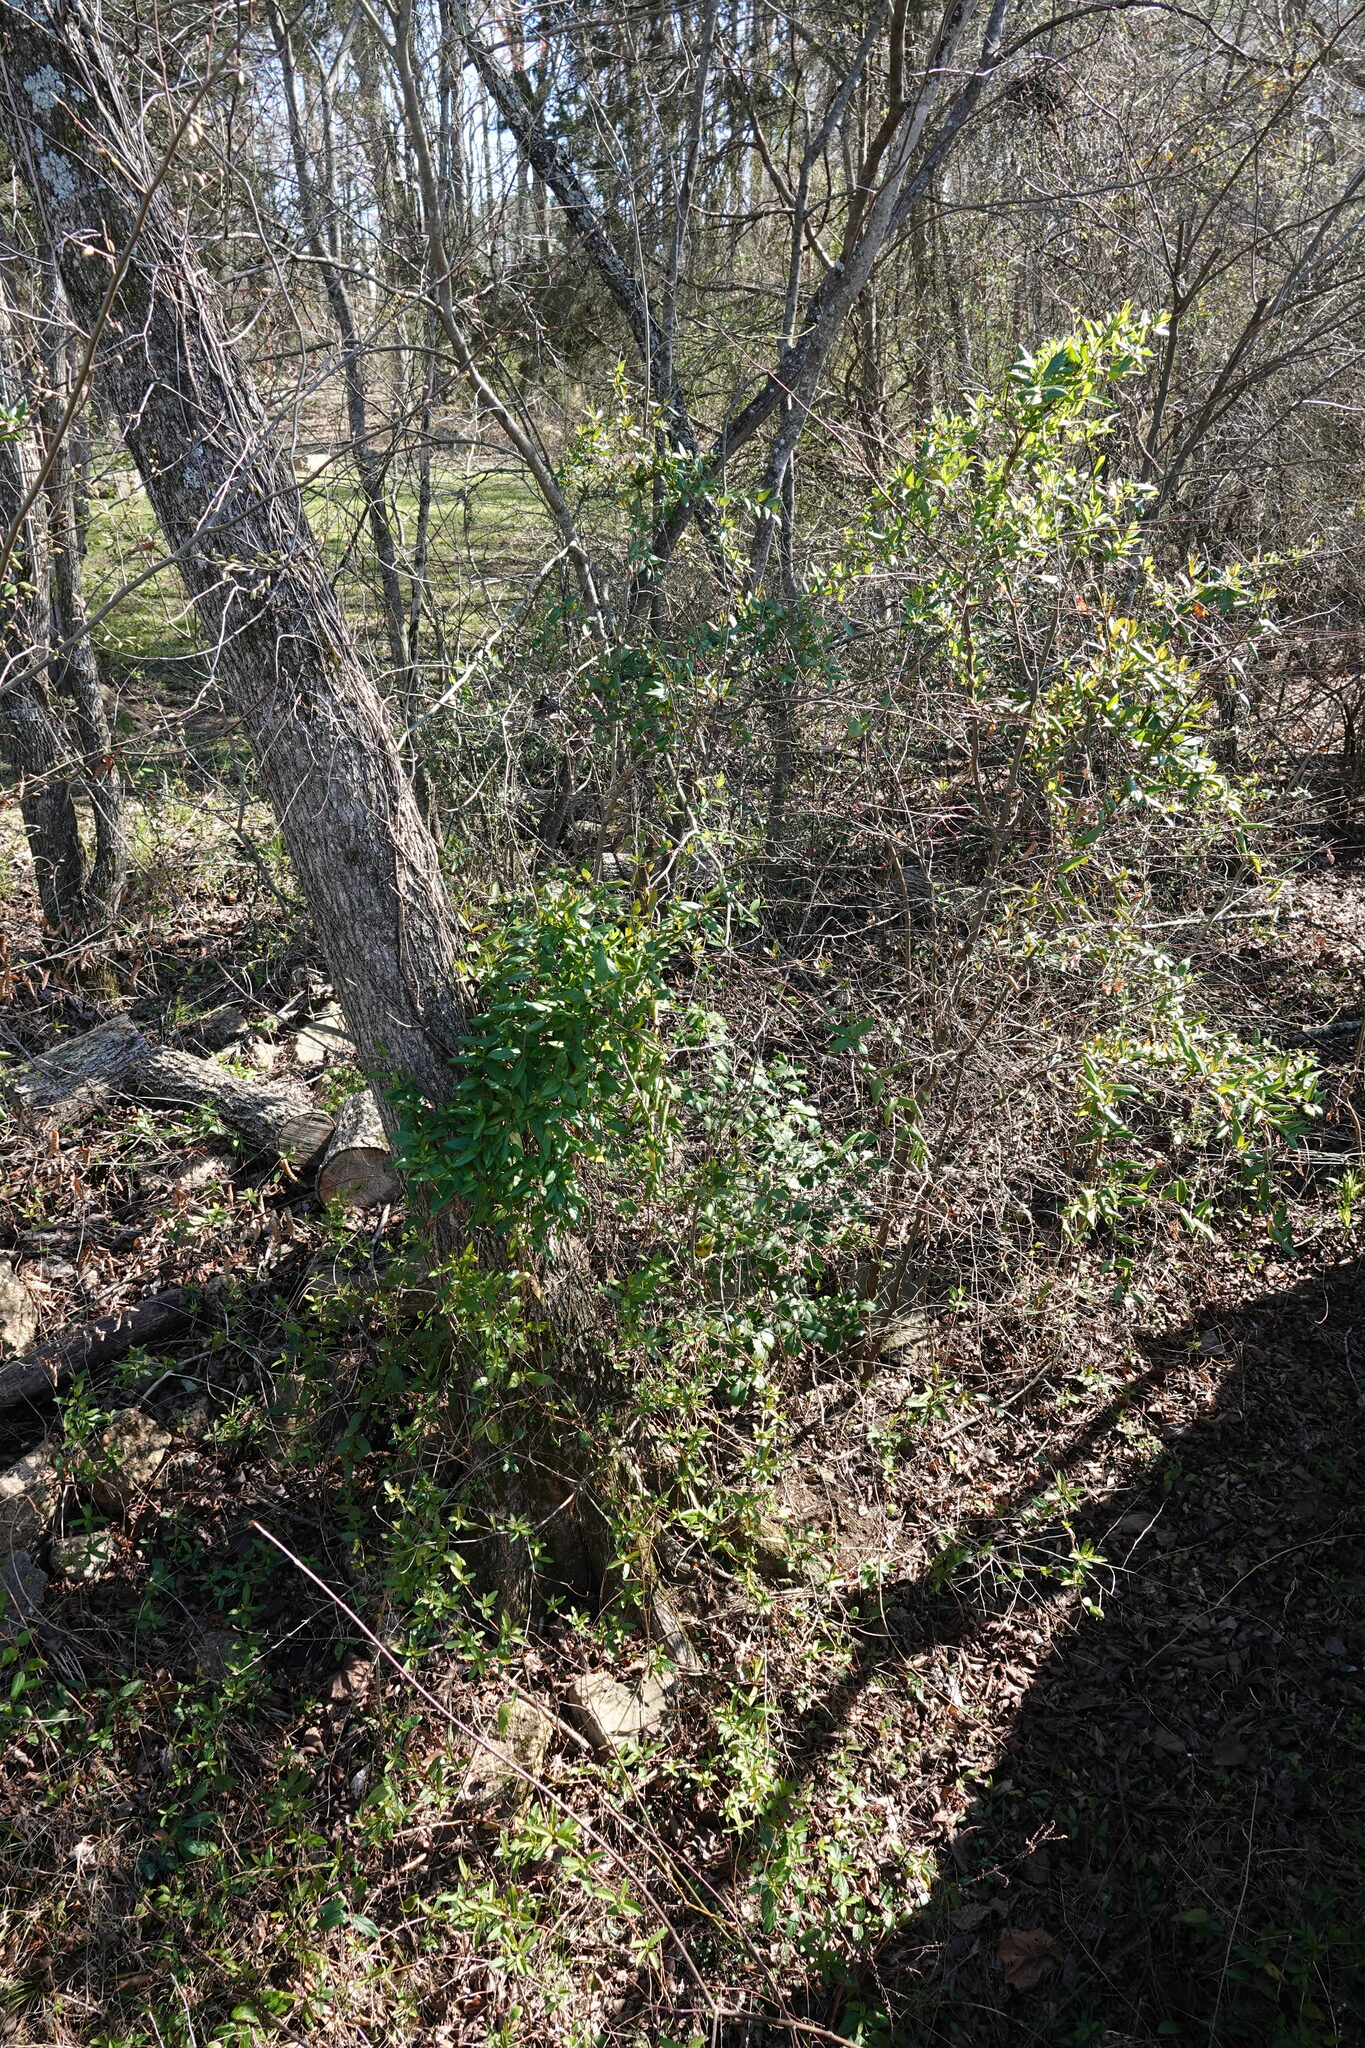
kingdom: Plantae
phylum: Tracheophyta
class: Magnoliopsida
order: Dipsacales
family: Caprifoliaceae
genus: Lonicera
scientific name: Lonicera japonica
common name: Japanese honeysuckle
